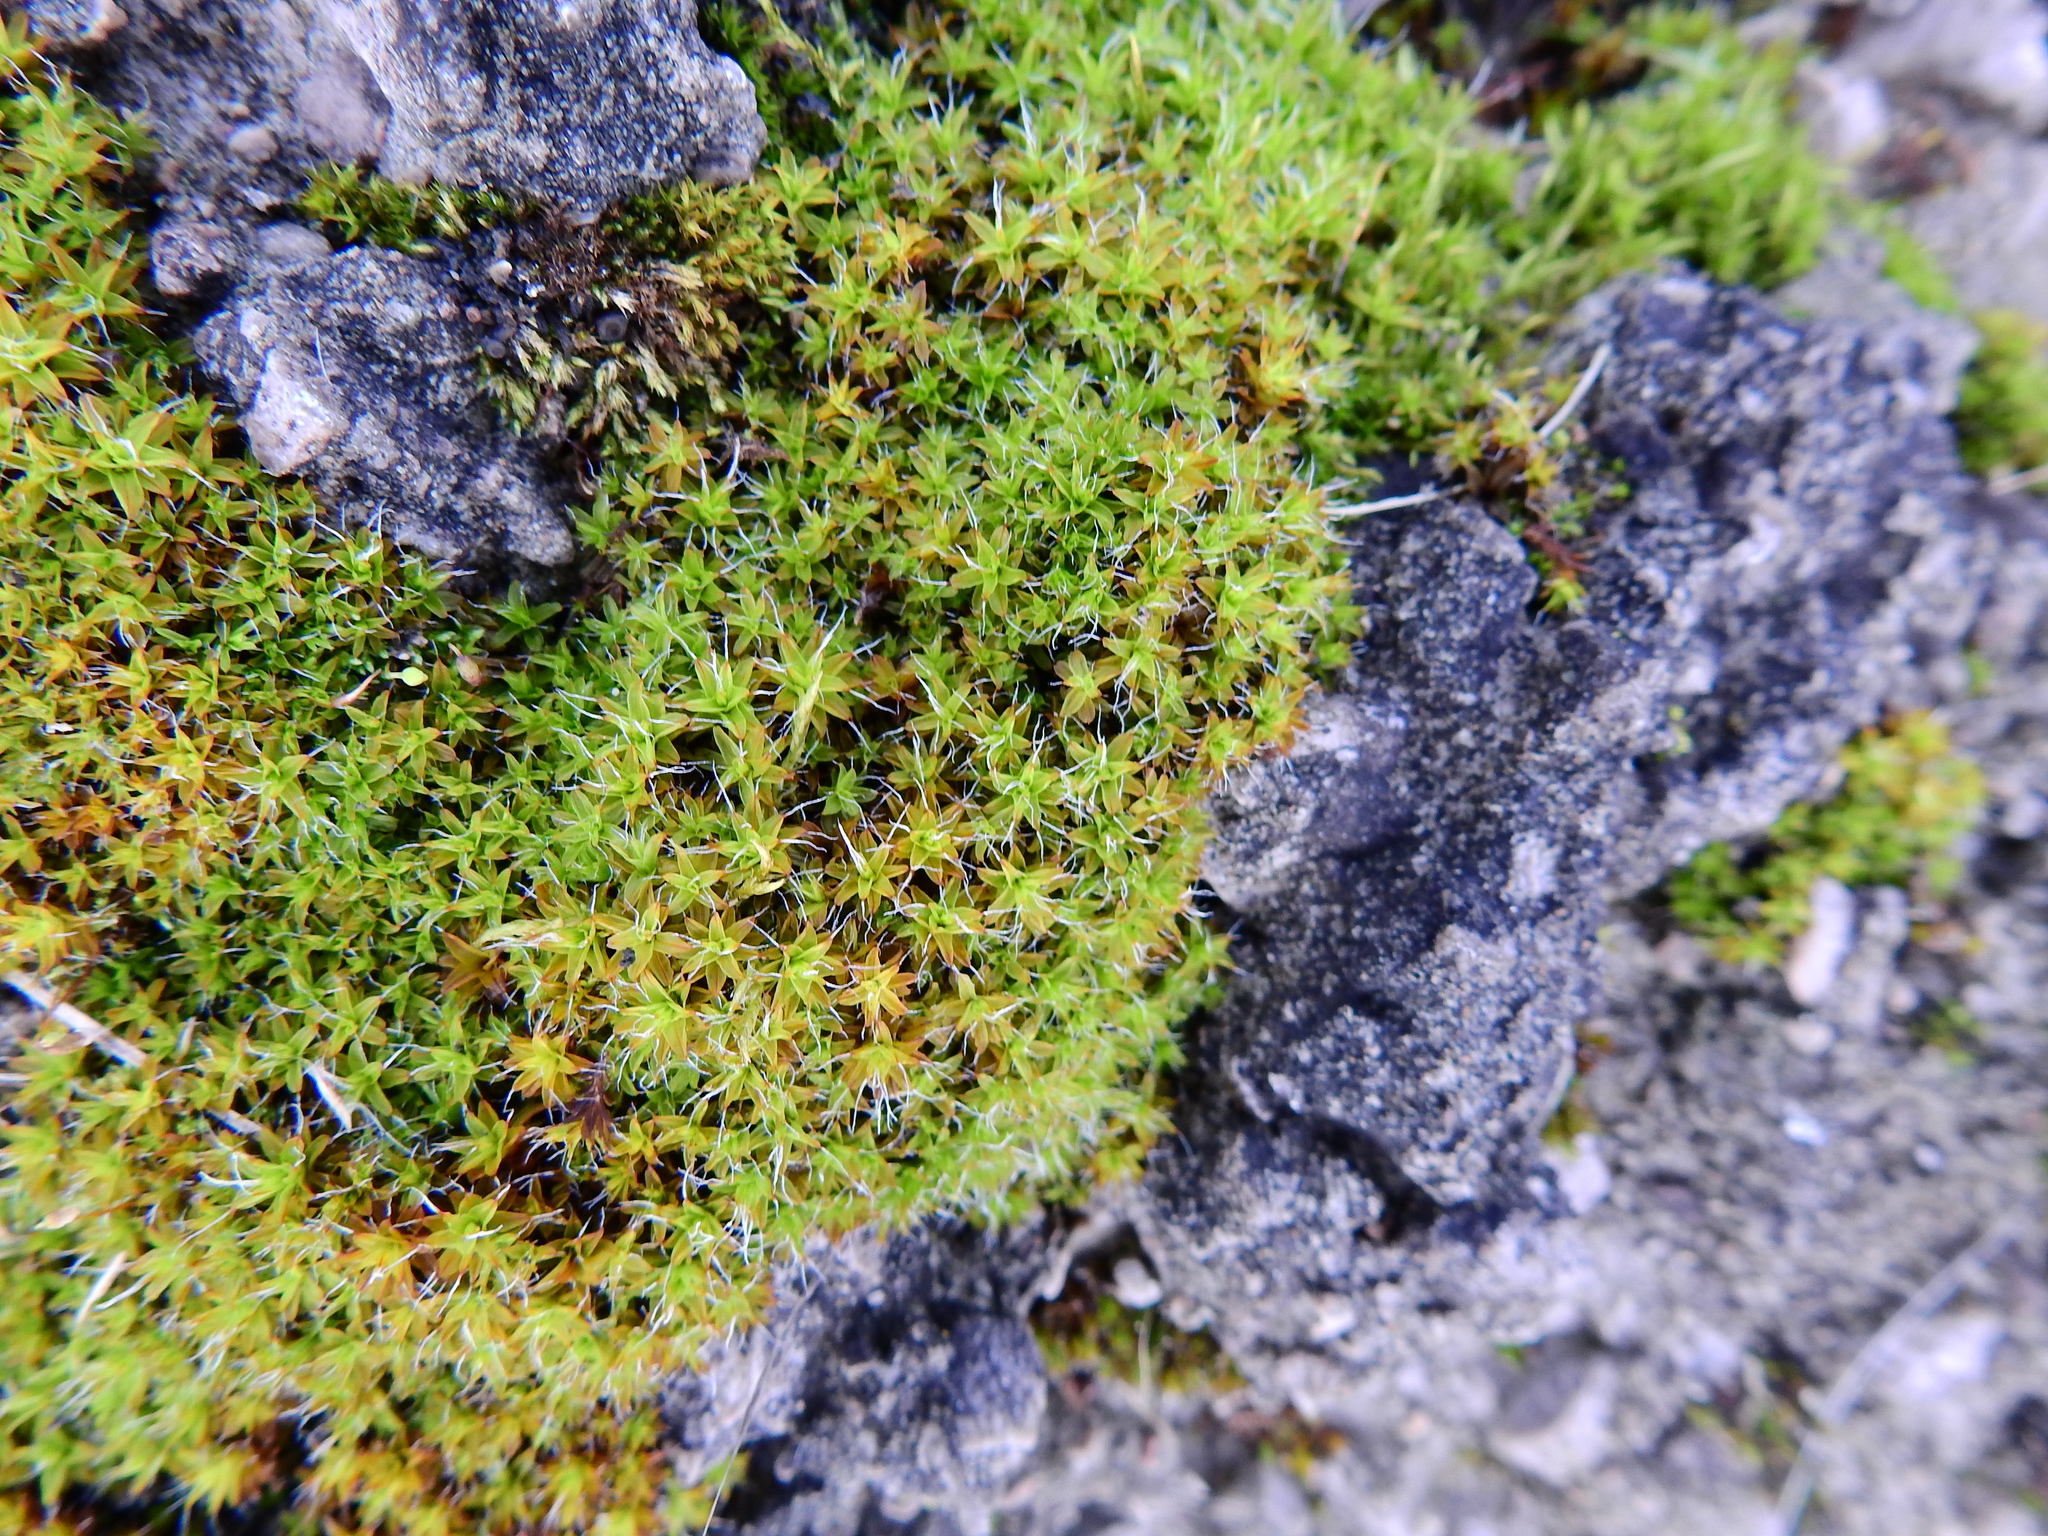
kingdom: Plantae
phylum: Bryophyta
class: Bryopsida
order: Pottiales
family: Pottiaceae
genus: Syntrichia
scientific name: Syntrichia ruralis
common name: Sidewalk screw moss
